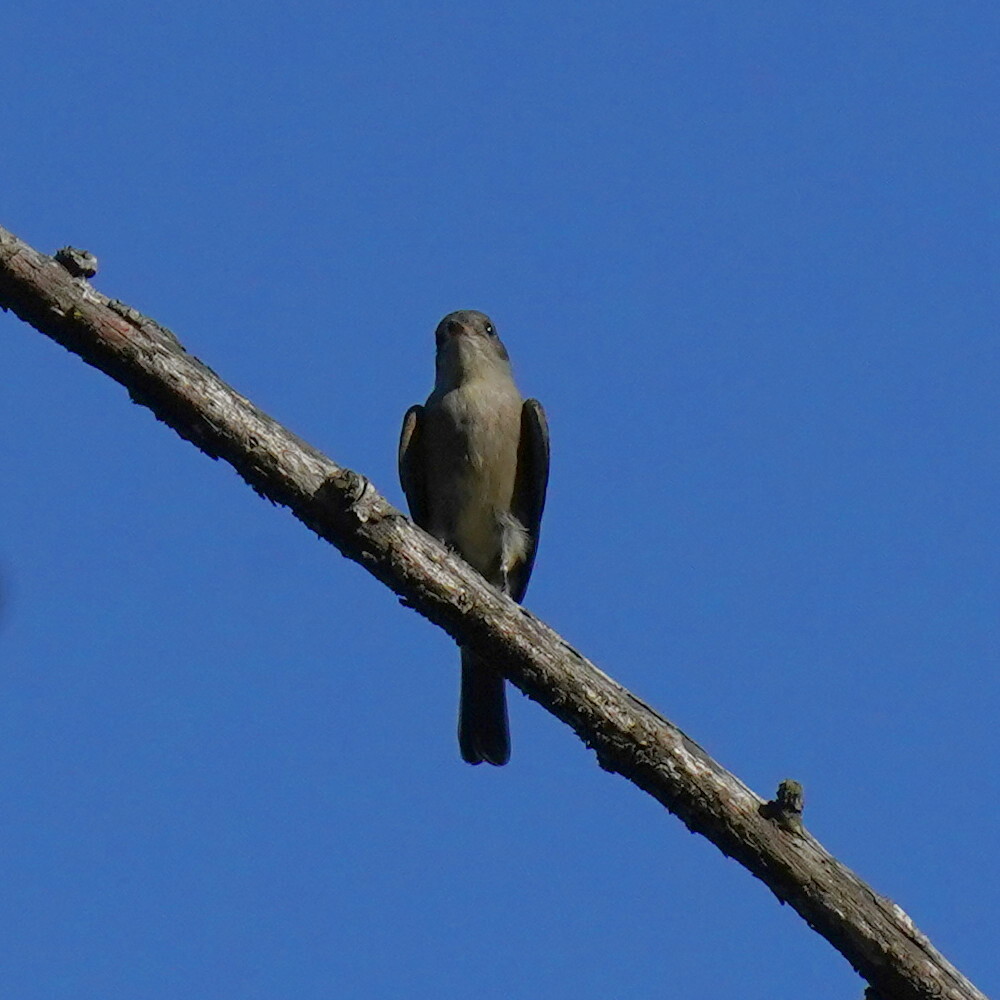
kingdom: Animalia
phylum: Chordata
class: Aves
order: Passeriformes
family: Tyrannidae
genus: Contopus
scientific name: Contopus sordidulus
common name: Western wood-pewee
